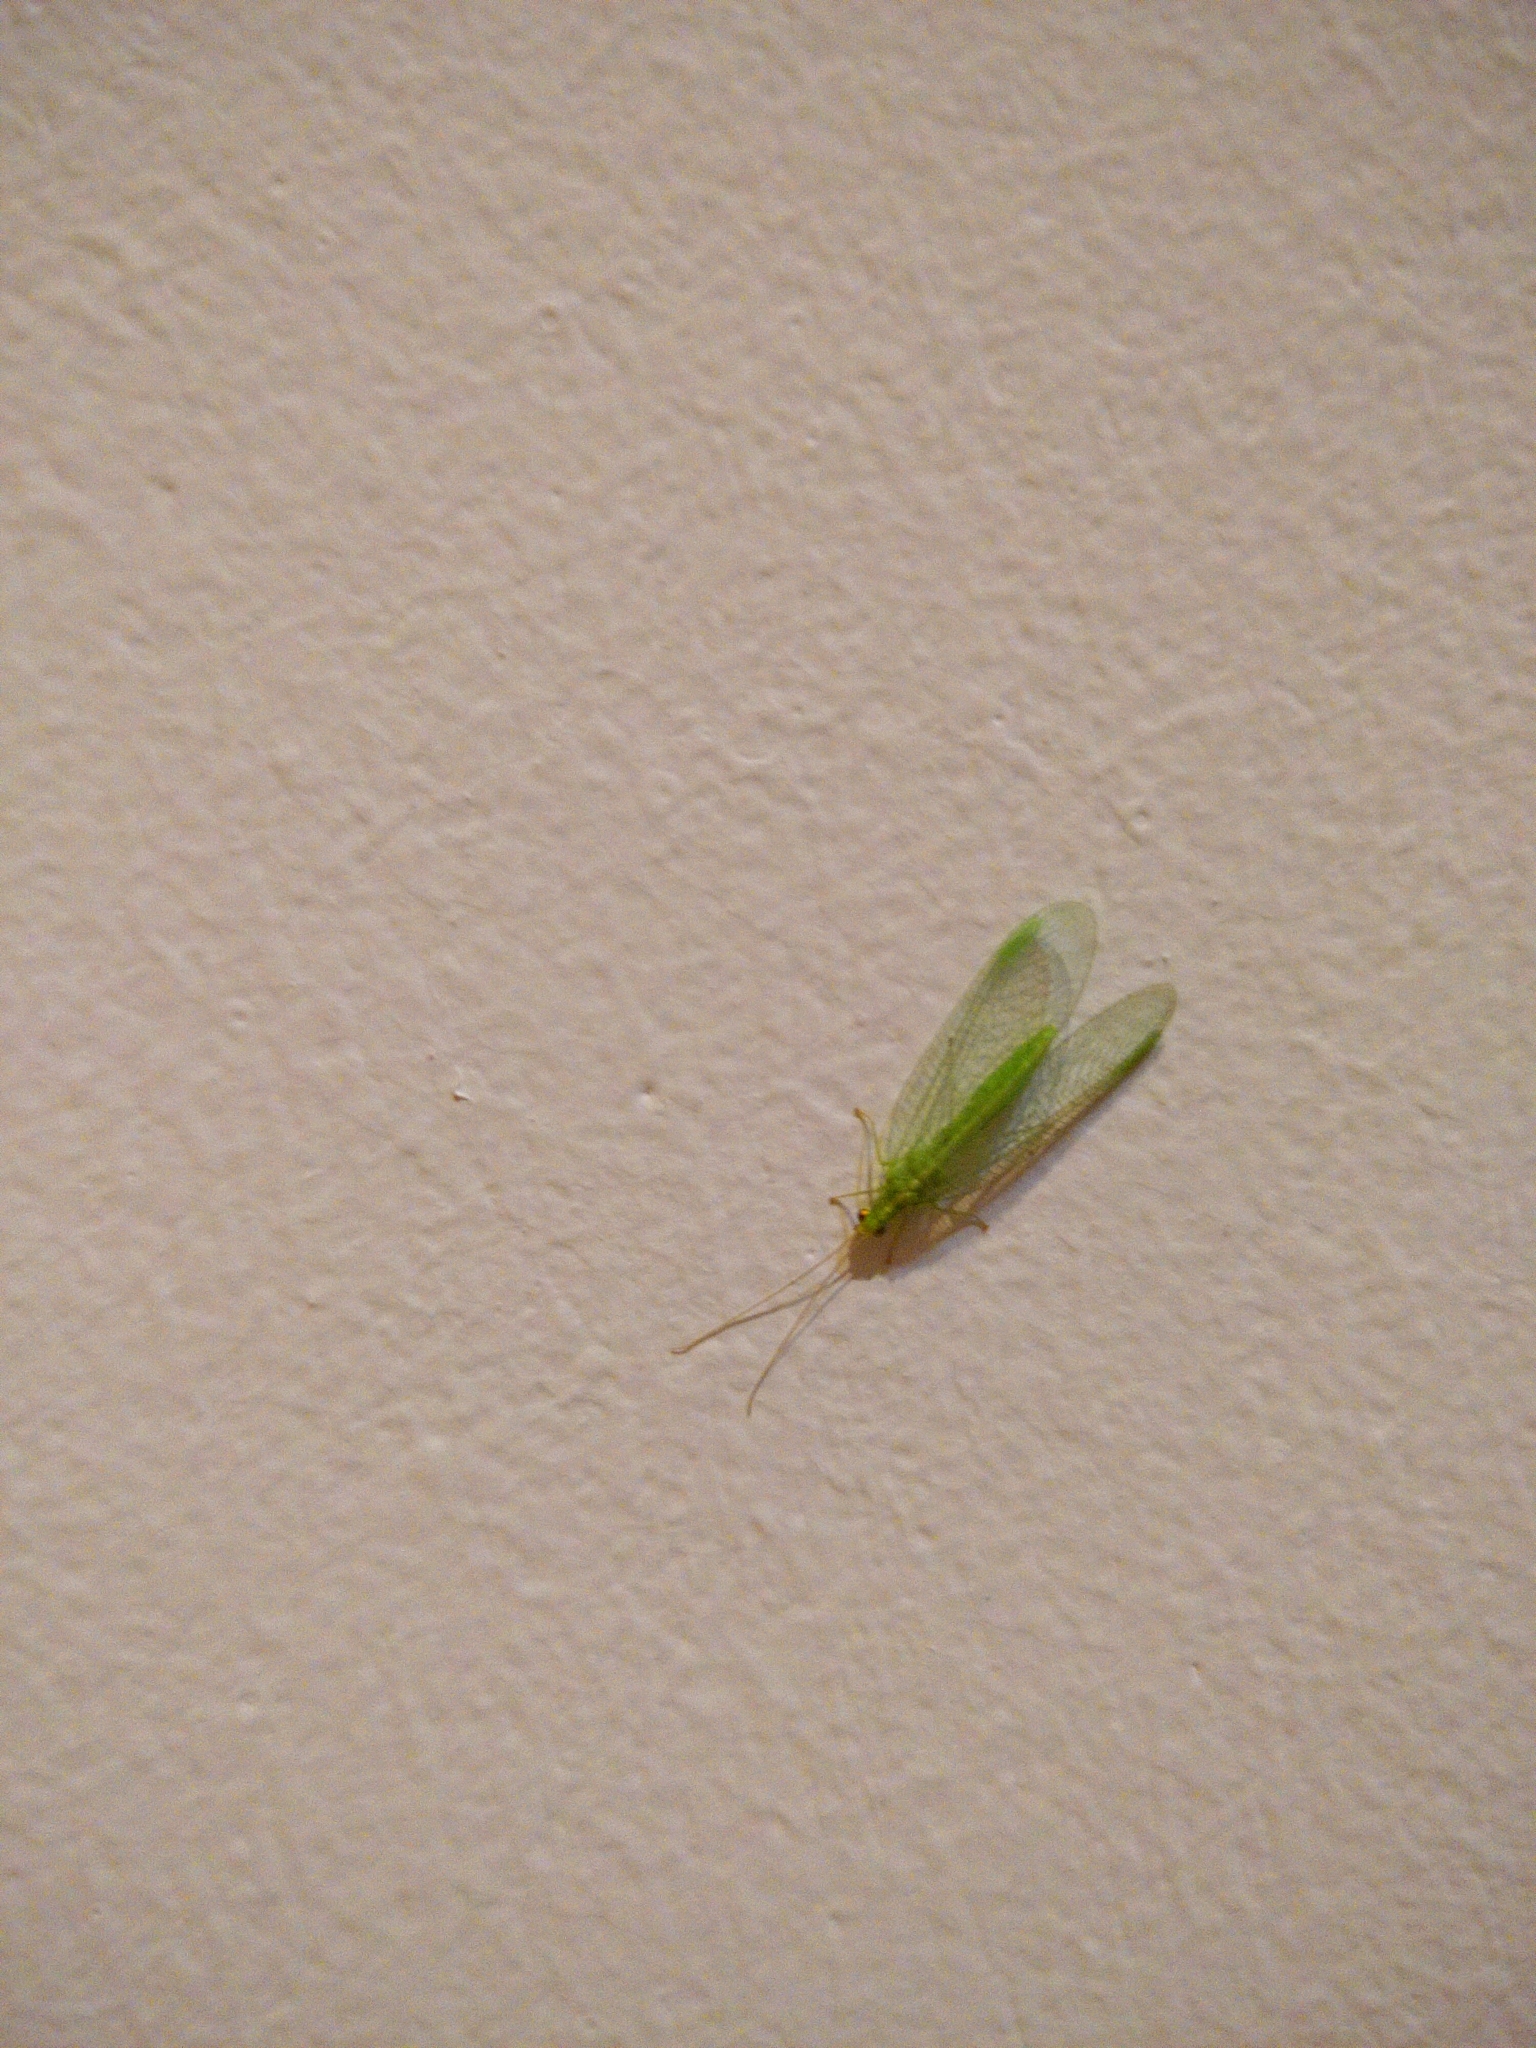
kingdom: Animalia
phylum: Arthropoda
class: Insecta
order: Neuroptera
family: Chrysopidae
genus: Chrysoperla
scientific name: Chrysoperla
